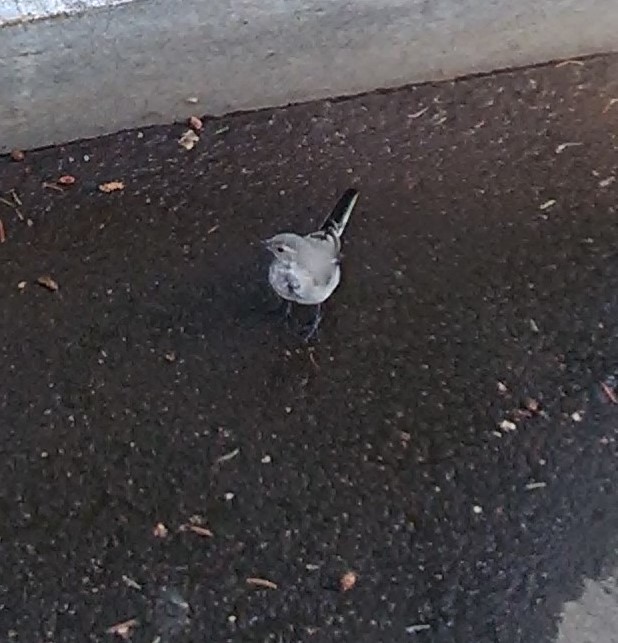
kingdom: Animalia
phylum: Chordata
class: Aves
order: Passeriformes
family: Motacillidae
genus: Motacilla
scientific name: Motacilla alba
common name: White wagtail
